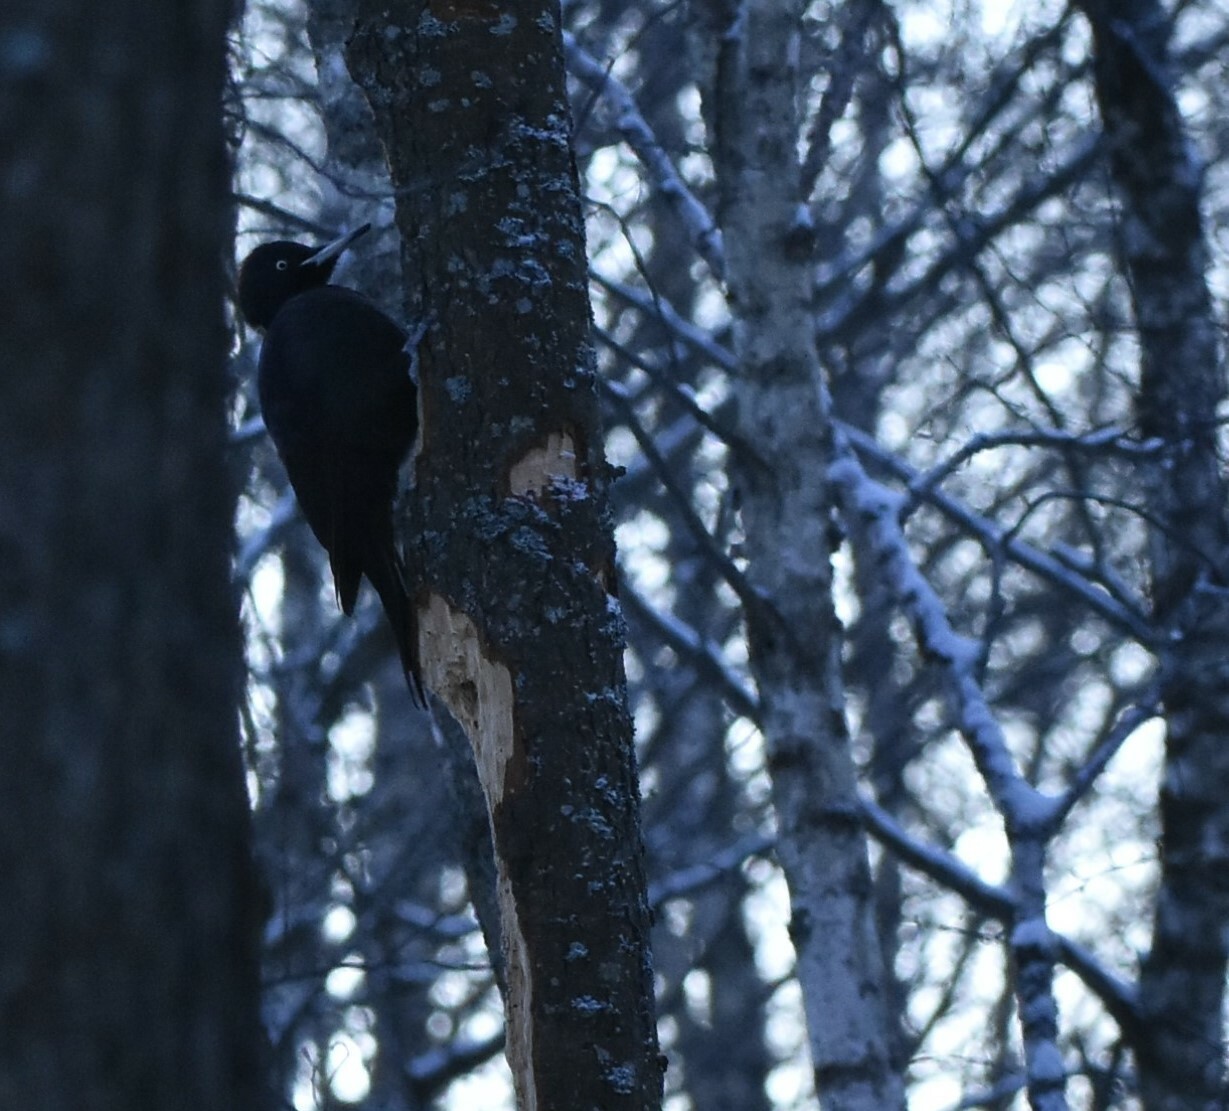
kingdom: Animalia
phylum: Chordata
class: Aves
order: Piciformes
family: Picidae
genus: Dryocopus
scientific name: Dryocopus martius
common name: Black woodpecker
